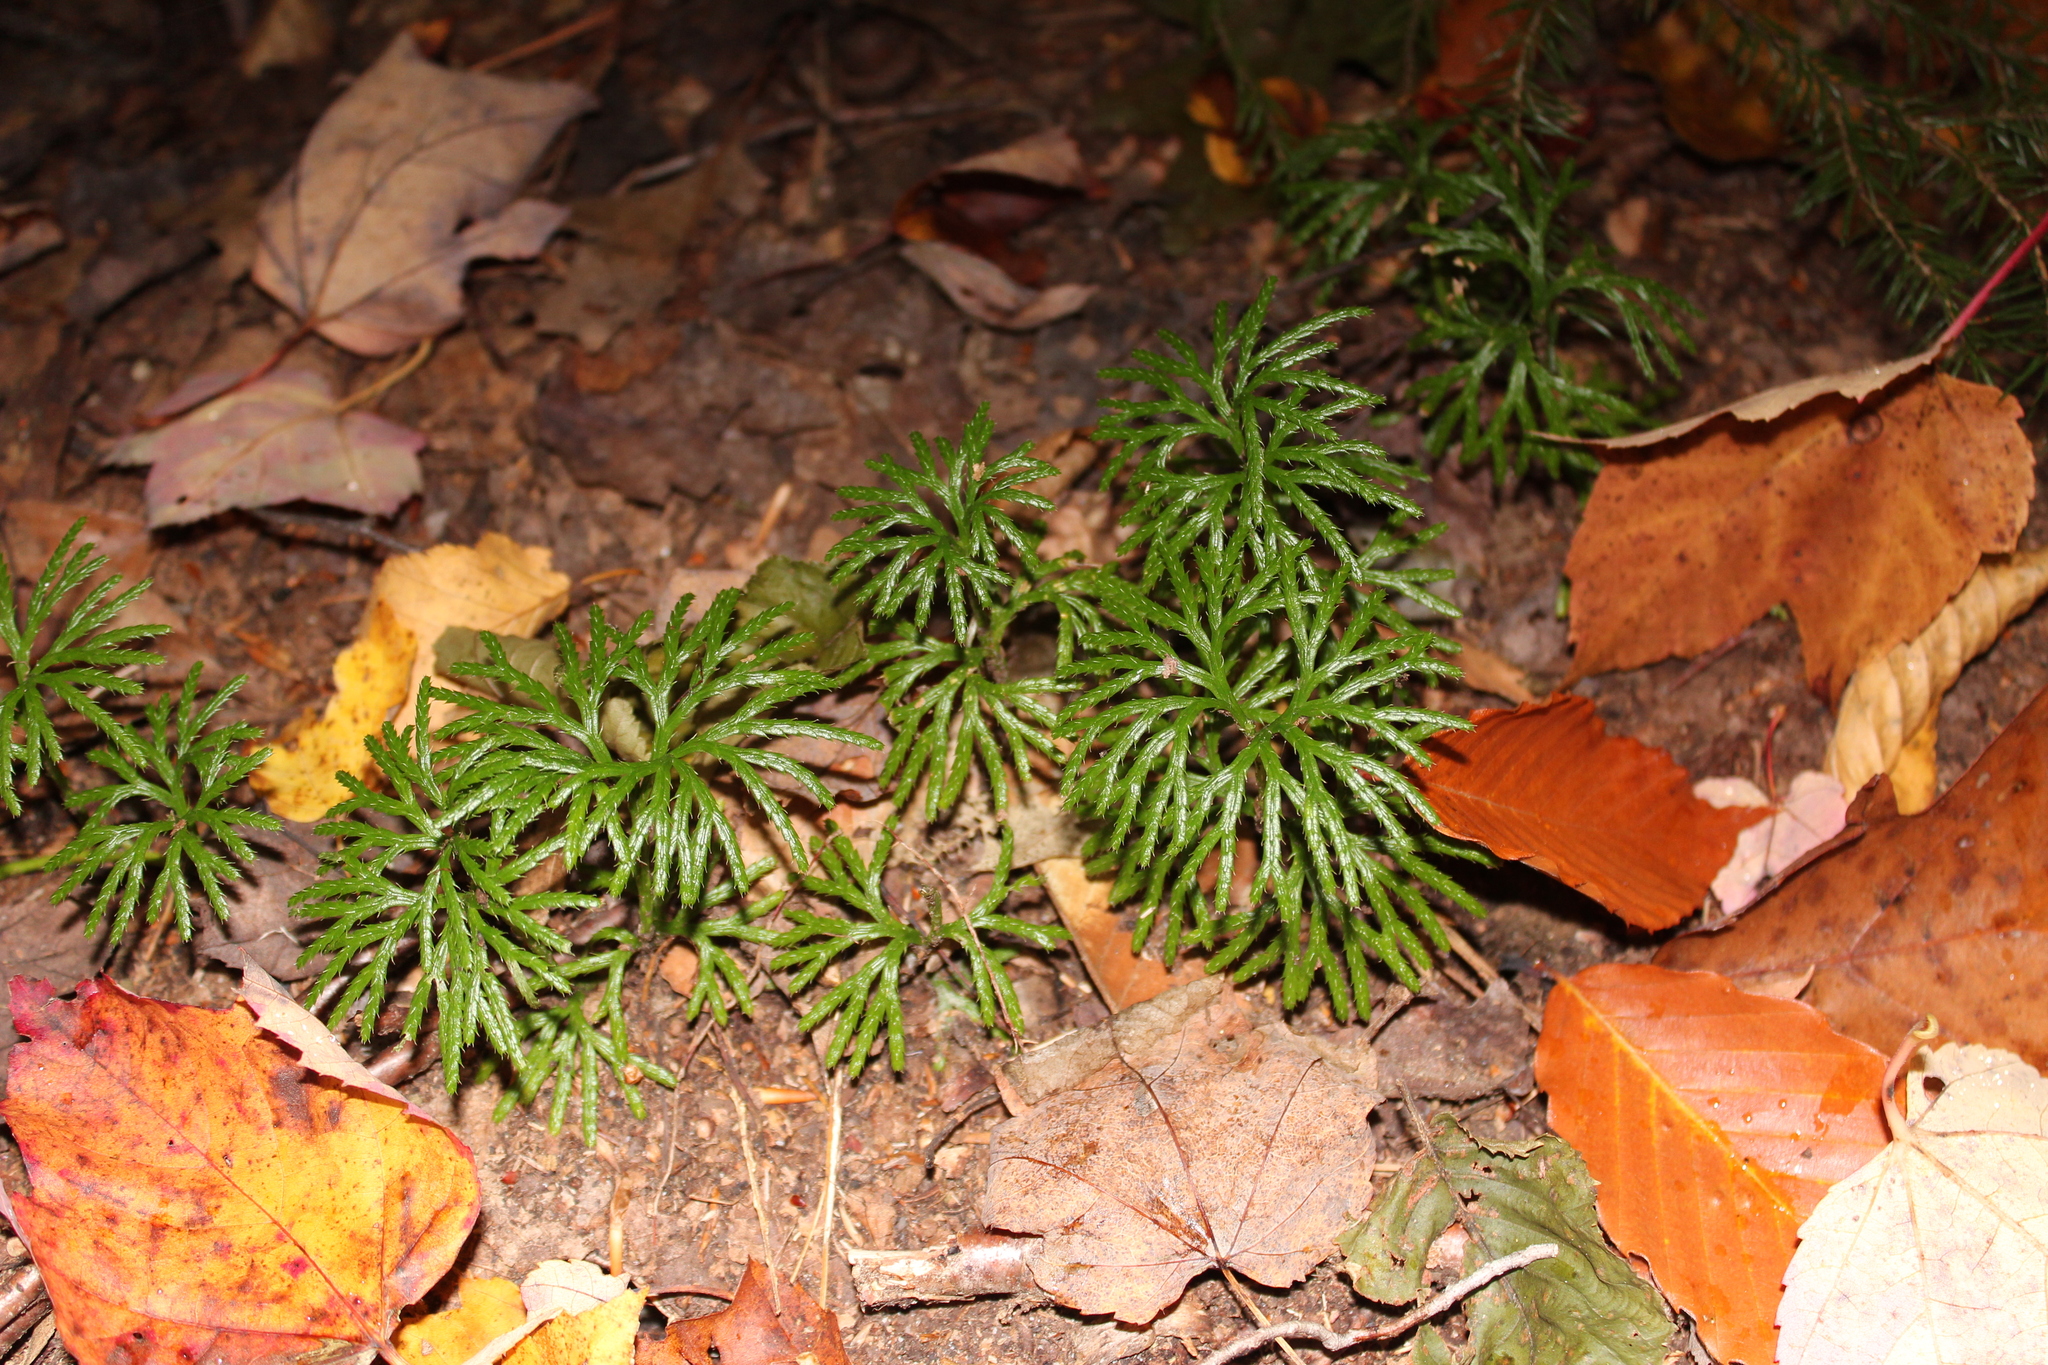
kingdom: Plantae
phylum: Tracheophyta
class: Lycopodiopsida
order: Lycopodiales
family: Lycopodiaceae
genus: Diphasiastrum
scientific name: Diphasiastrum digitatum
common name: Southern running-pine
